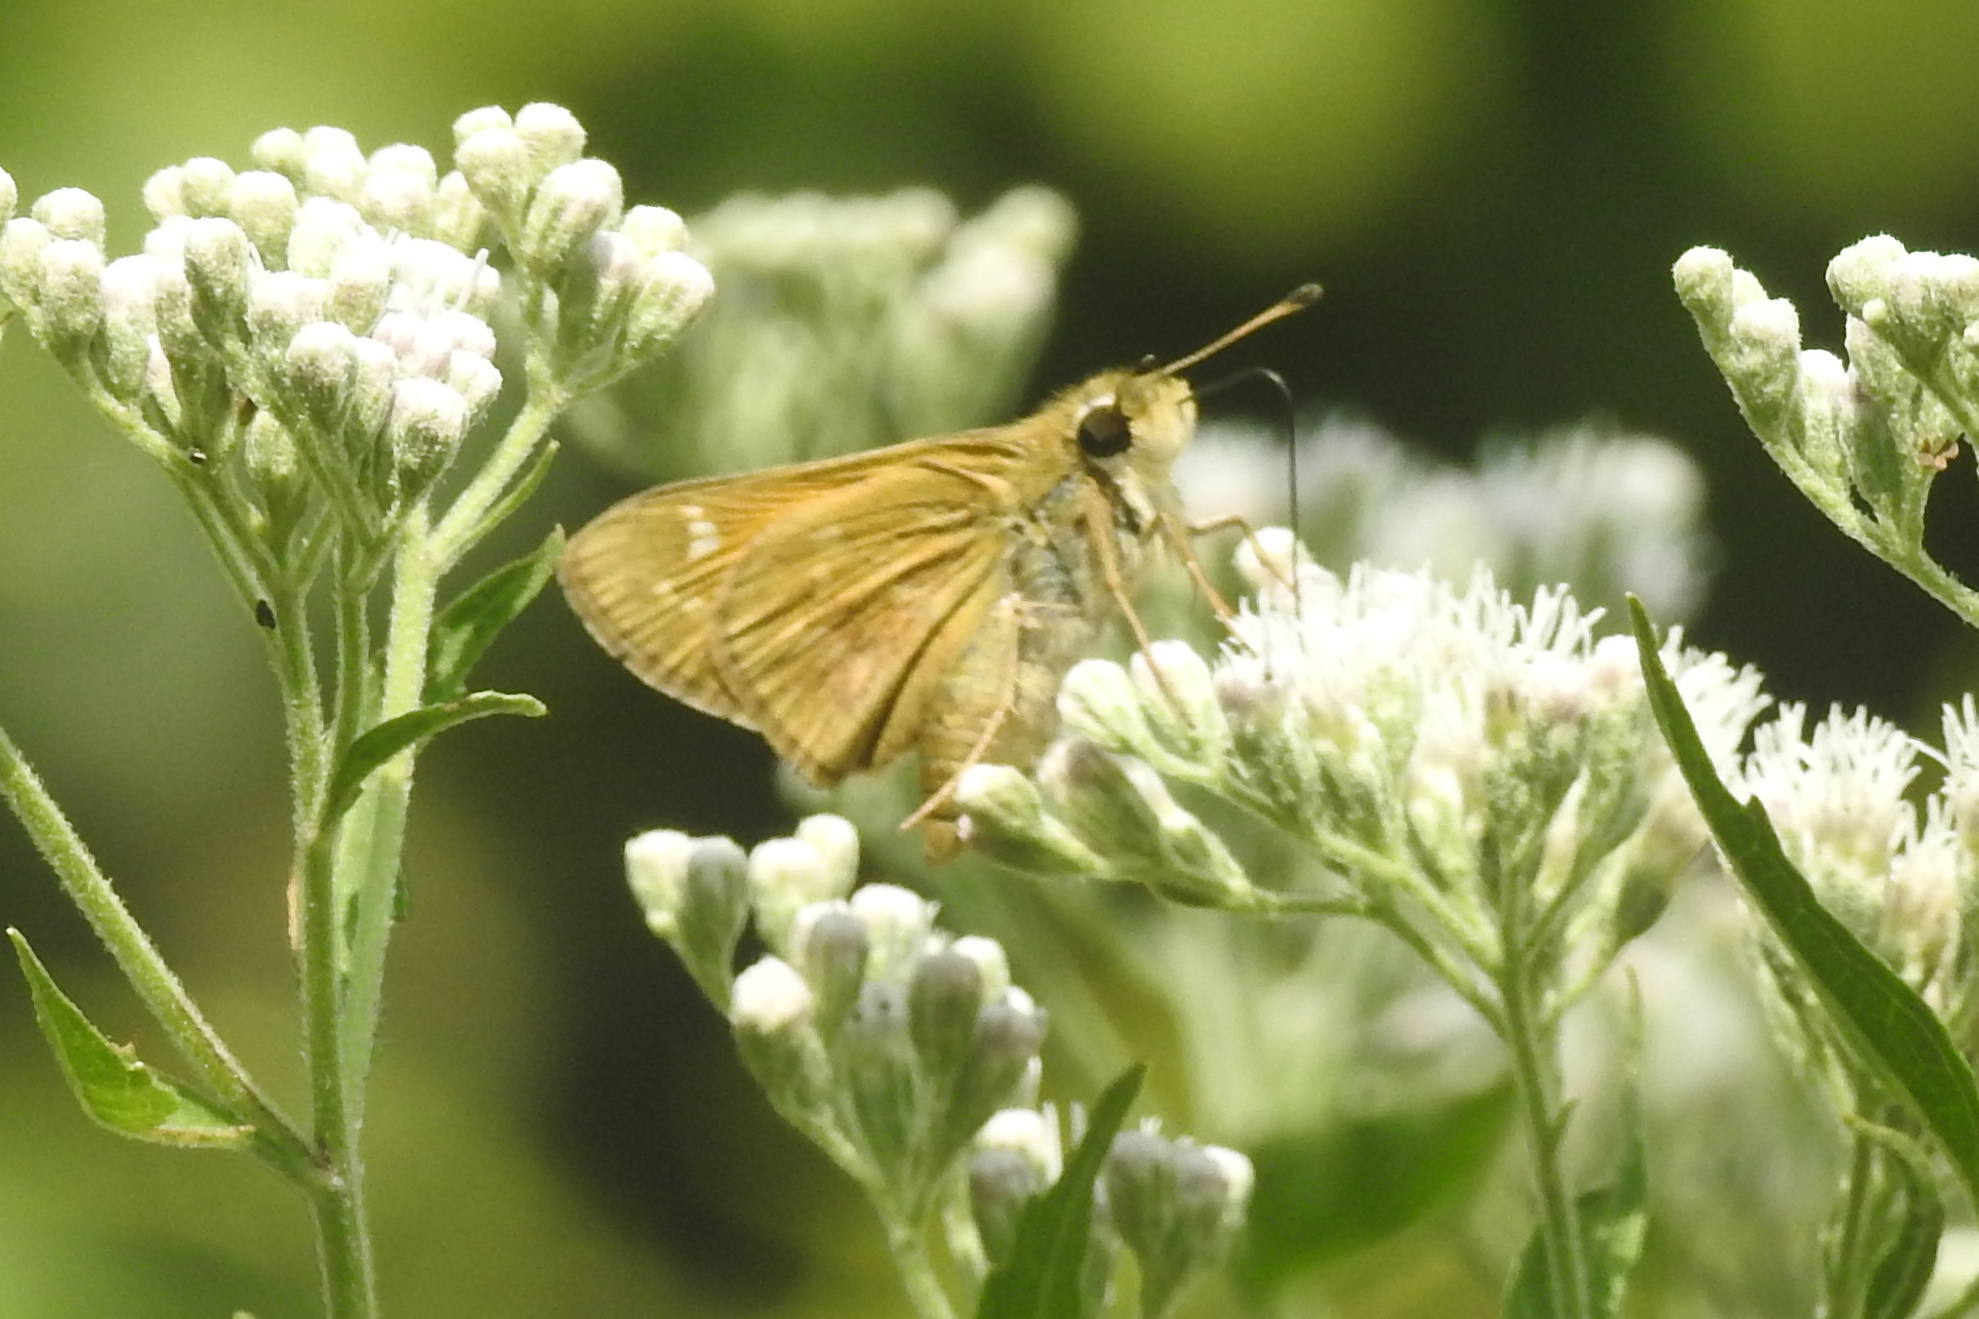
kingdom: Animalia
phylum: Arthropoda
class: Insecta
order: Lepidoptera
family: Hesperiidae
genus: Atalopedes
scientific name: Atalopedes
